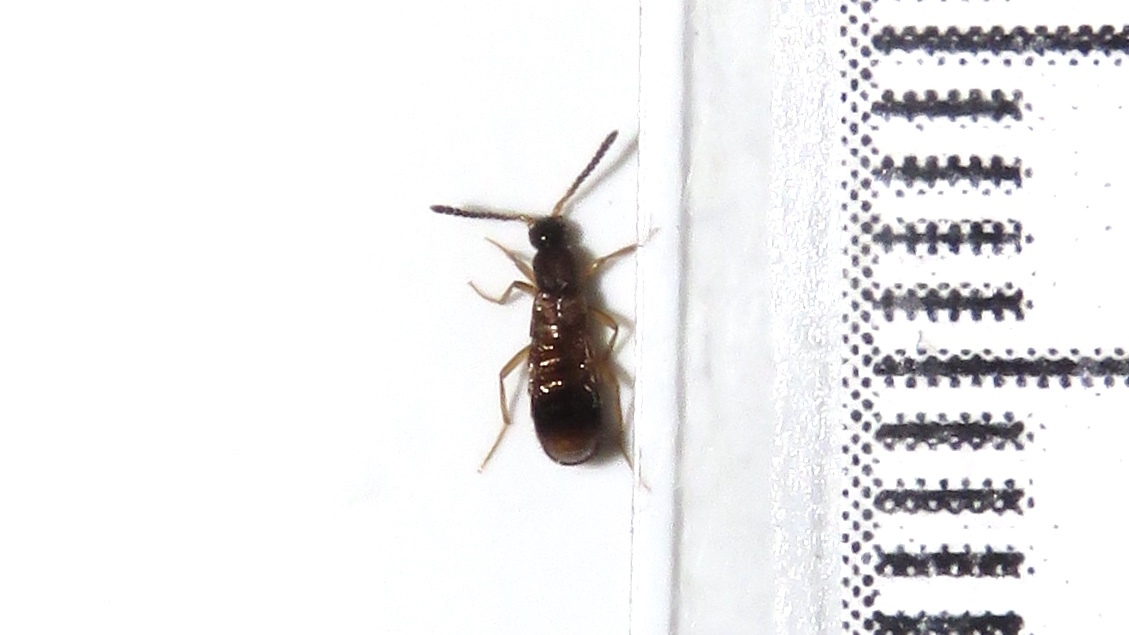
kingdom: Animalia
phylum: Arthropoda
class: Insecta
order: Coleoptera
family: Staphylinidae
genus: Drusilla
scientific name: Drusilla canaliculata
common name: Rove beetle
